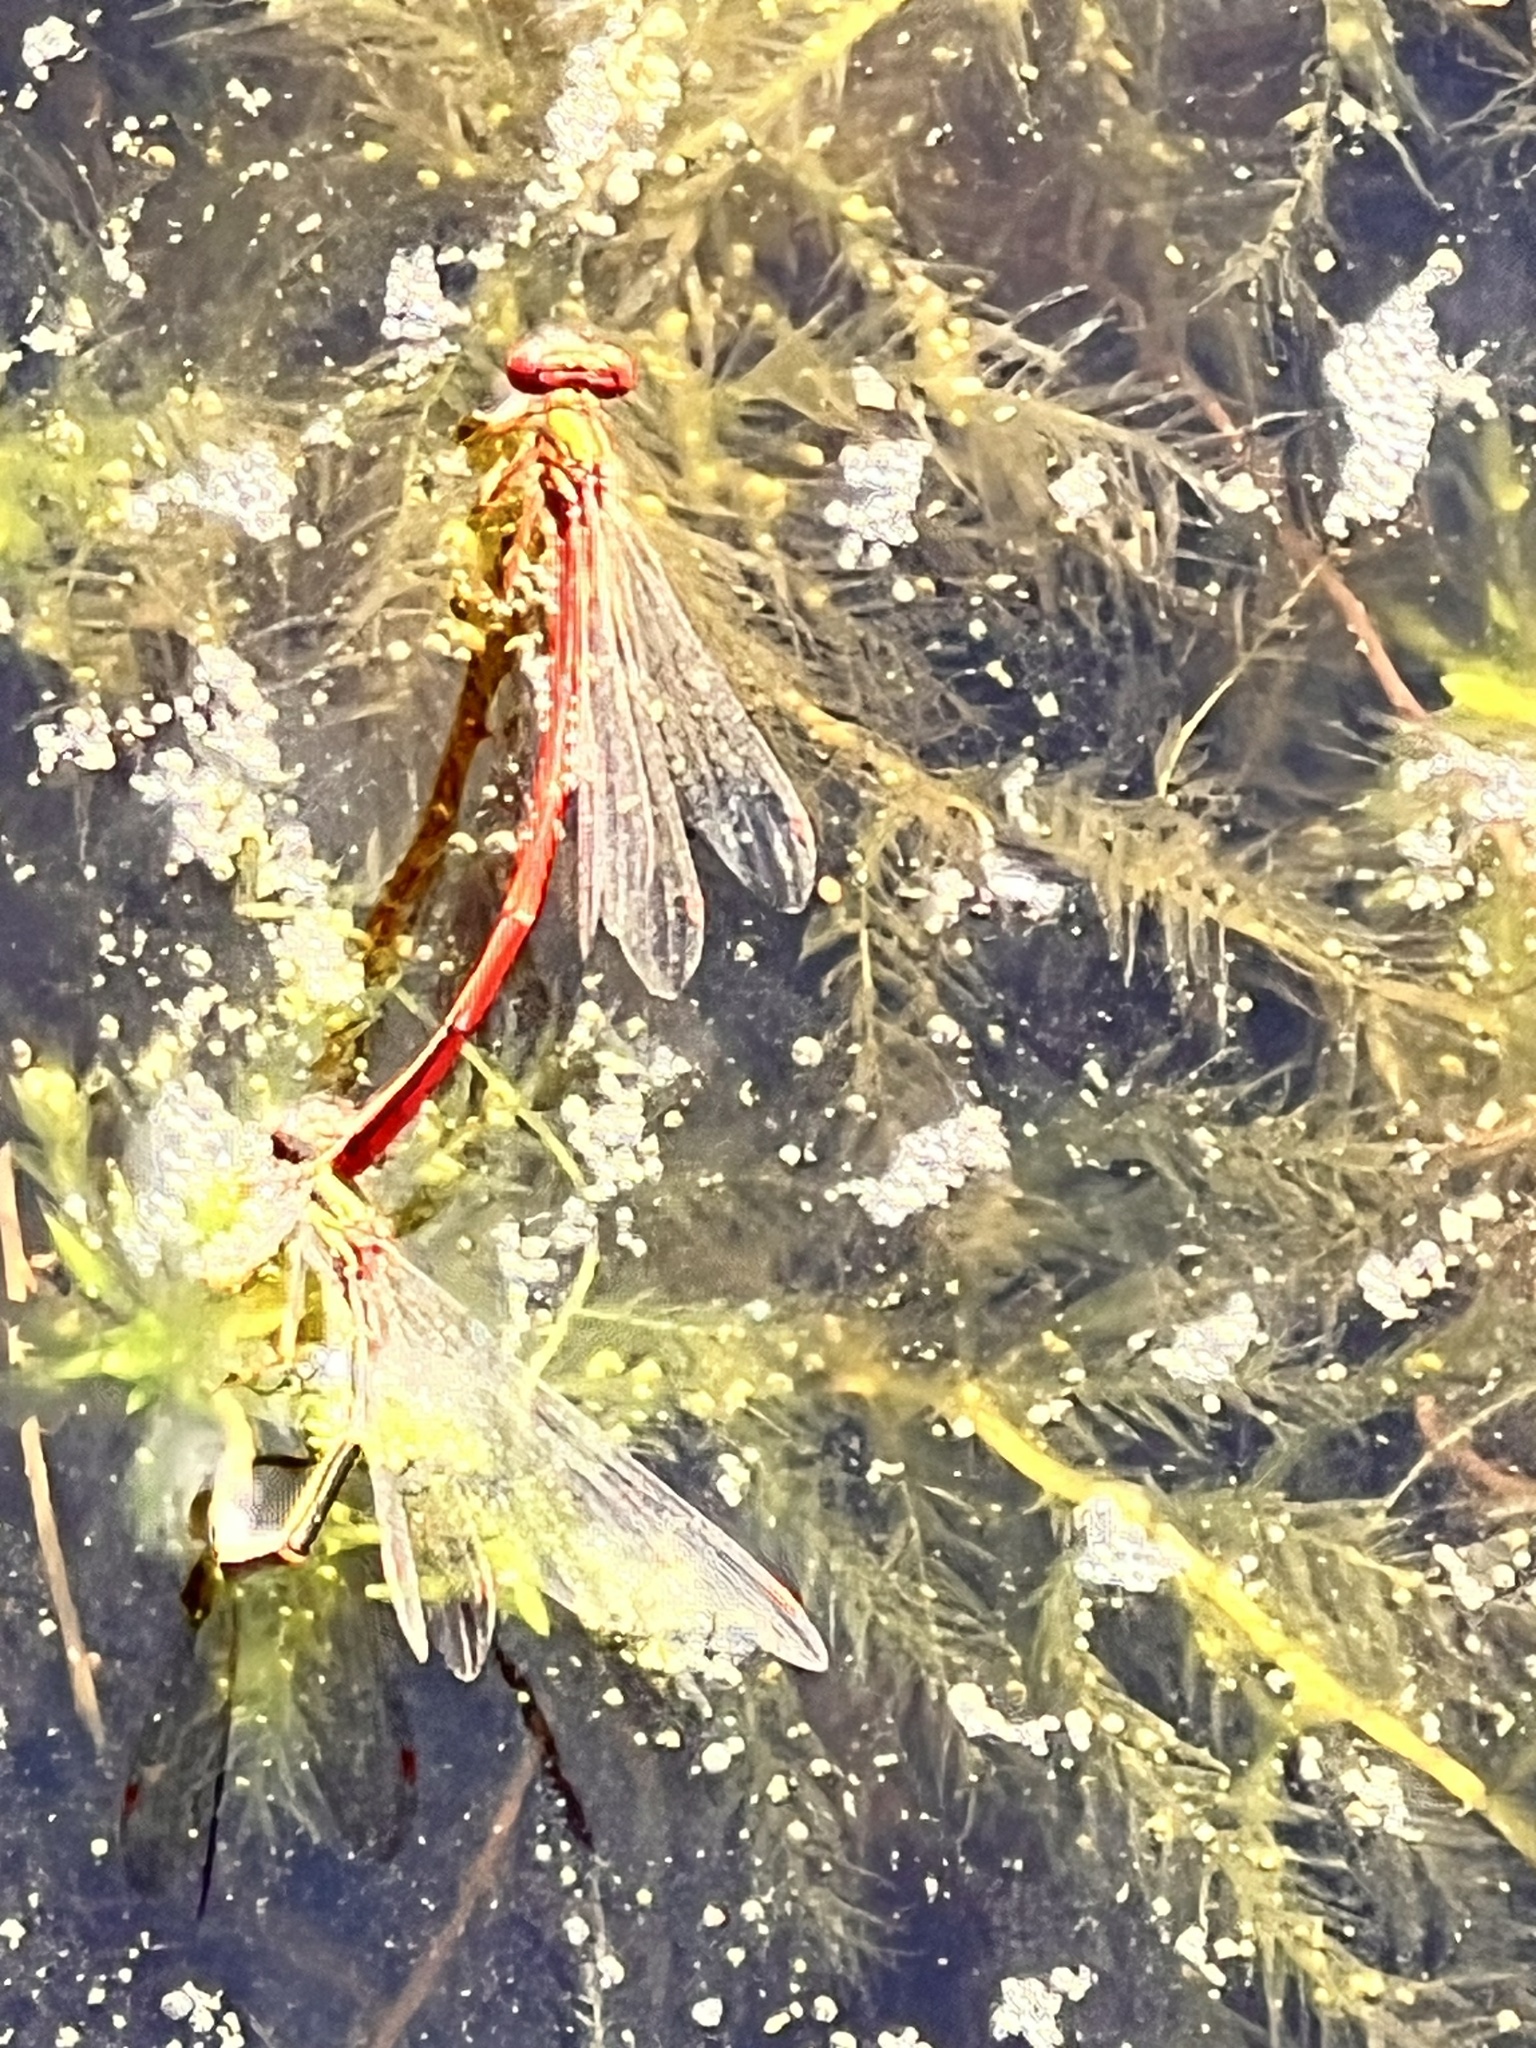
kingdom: Animalia
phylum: Arthropoda
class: Insecta
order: Odonata
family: Coenagrionidae
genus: Xanthocnemis
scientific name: Xanthocnemis zealandica
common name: Common redcoat damselfly
